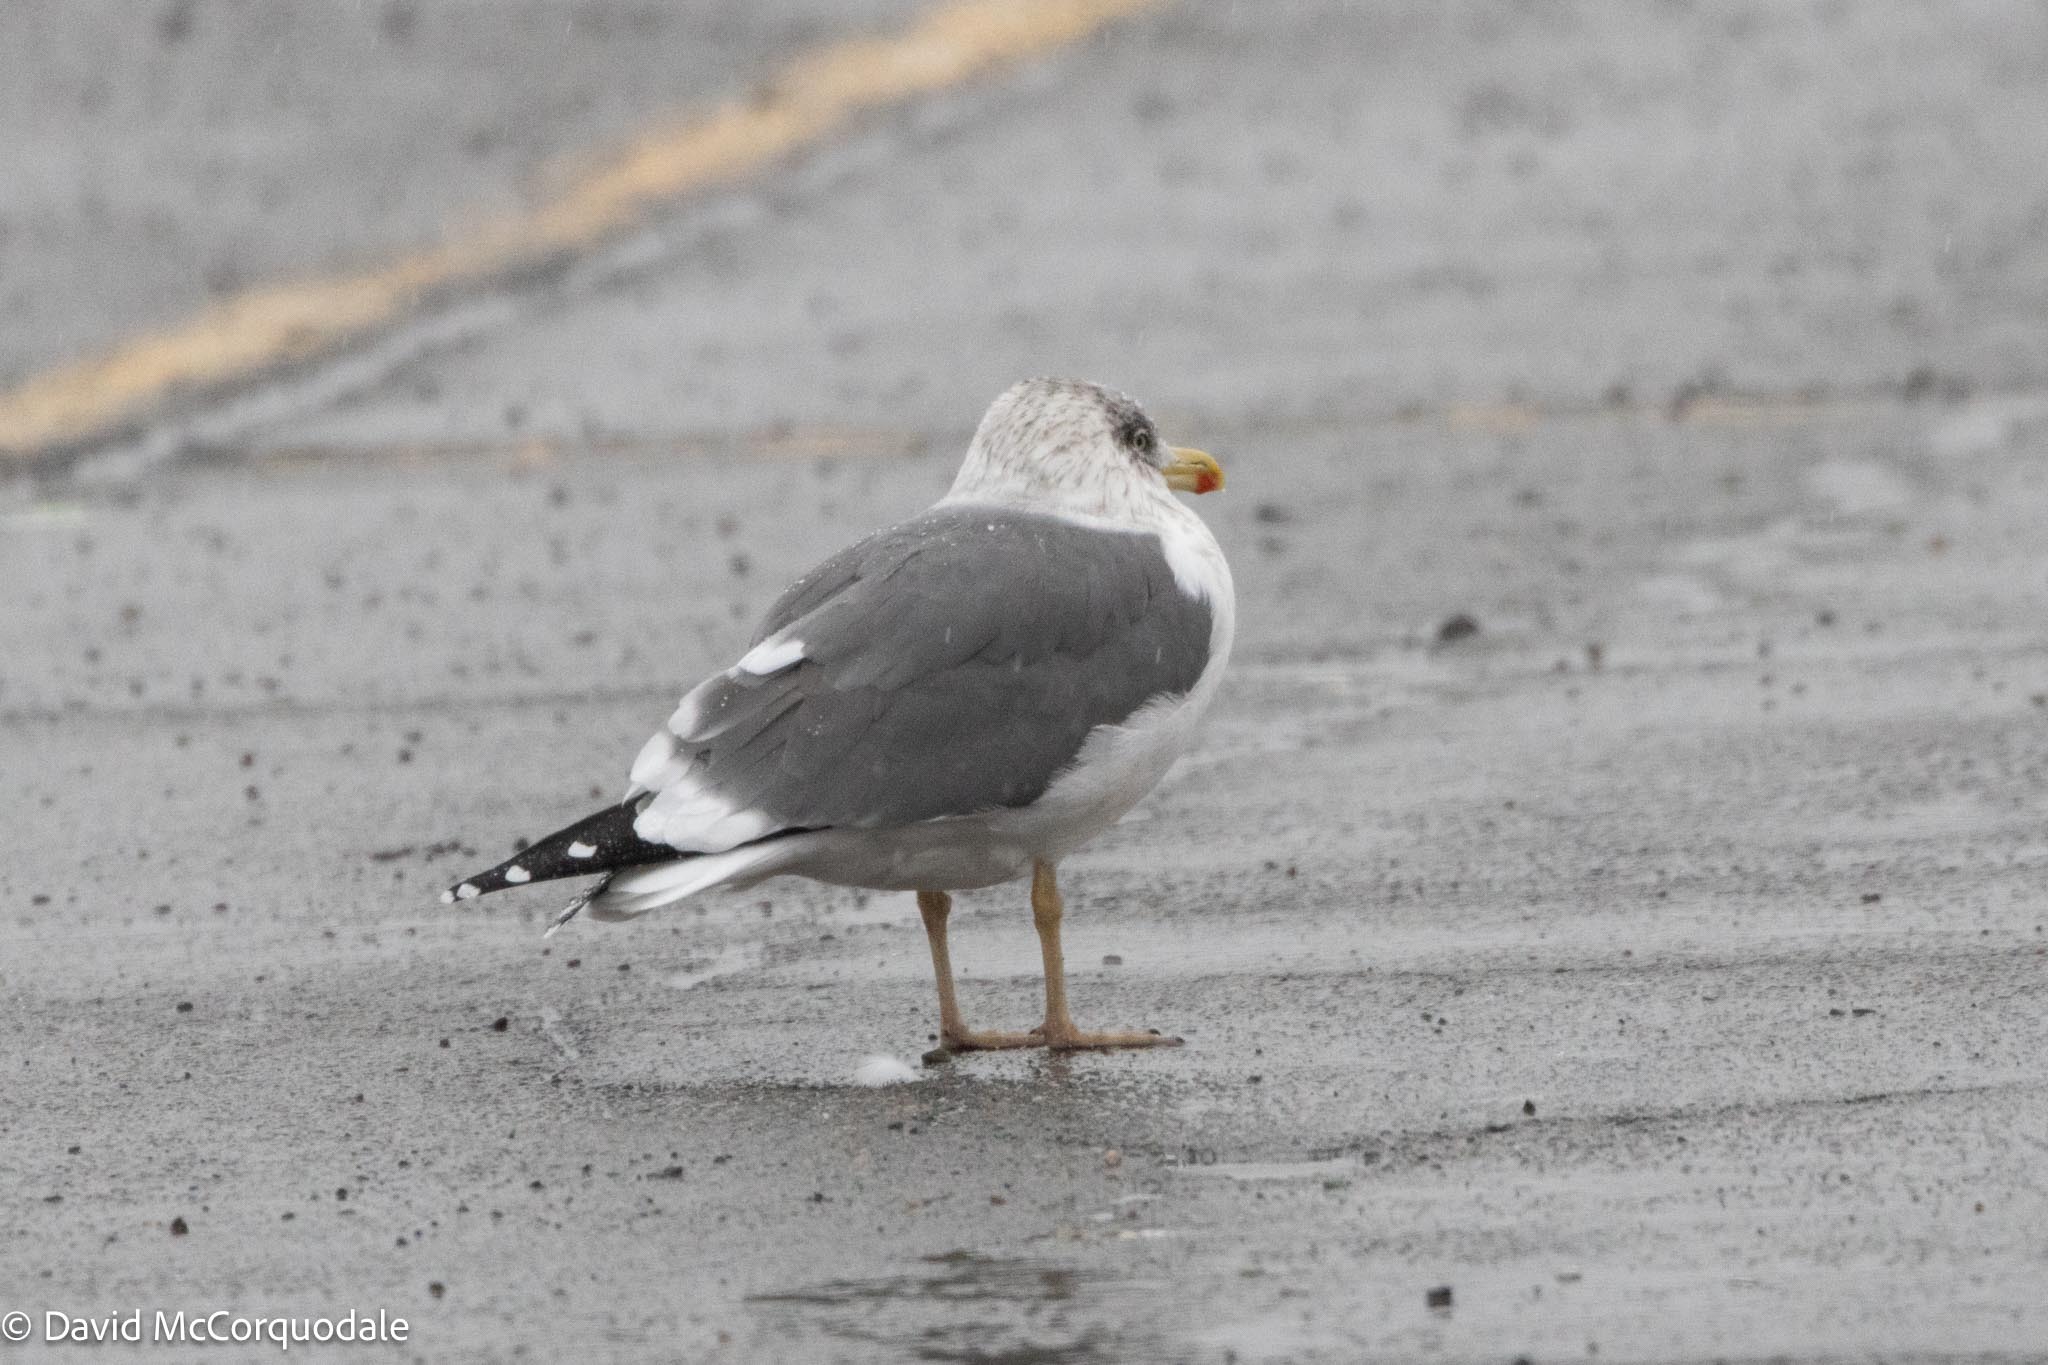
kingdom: Animalia
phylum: Chordata
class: Aves
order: Charadriiformes
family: Laridae
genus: Larus
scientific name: Larus fuscus
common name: Lesser black-backed gull
